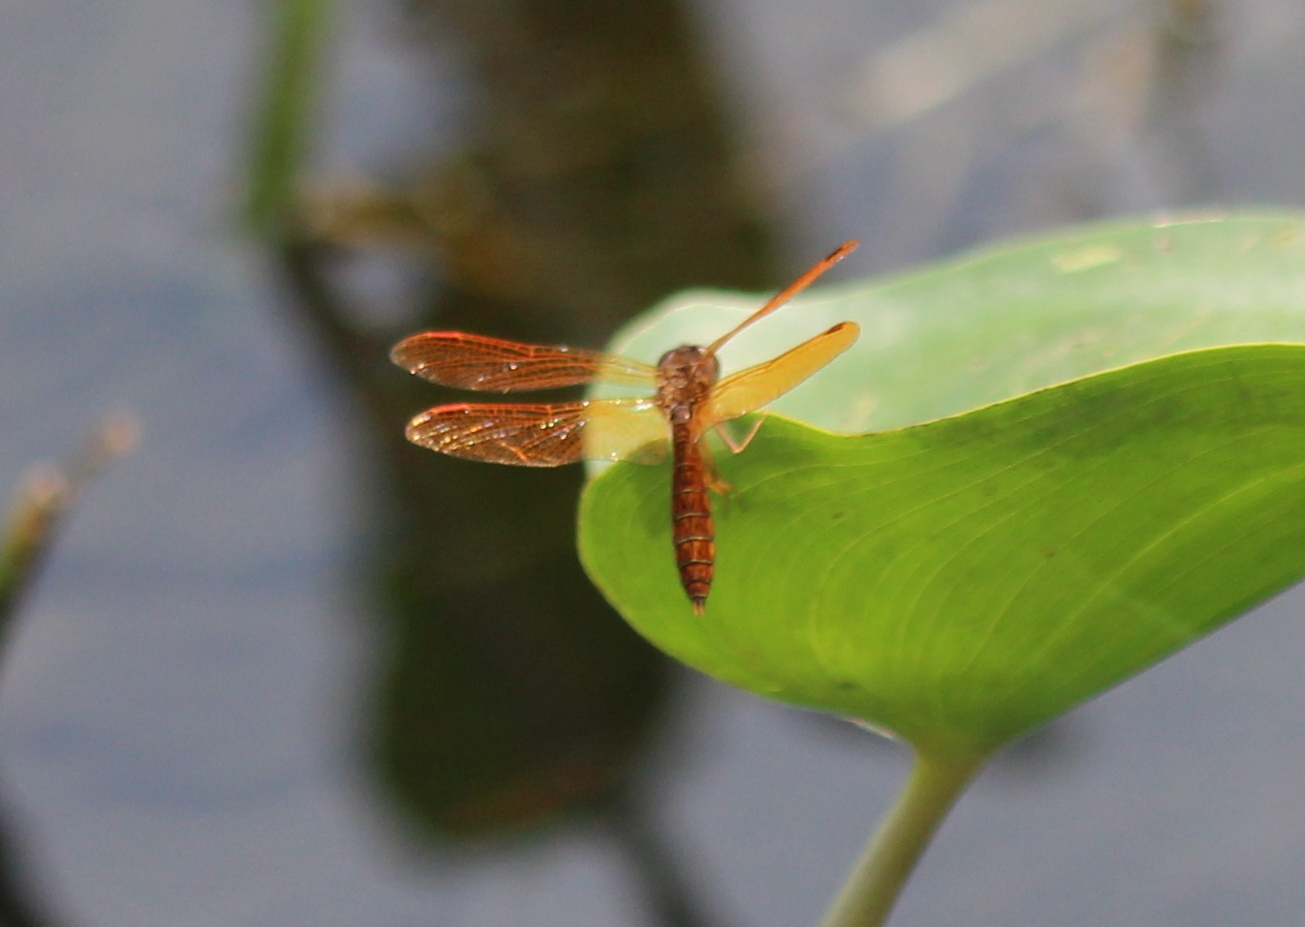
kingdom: Animalia
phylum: Arthropoda
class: Insecta
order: Odonata
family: Libellulidae
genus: Perithemis
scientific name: Perithemis tenera
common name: Eastern amberwing
